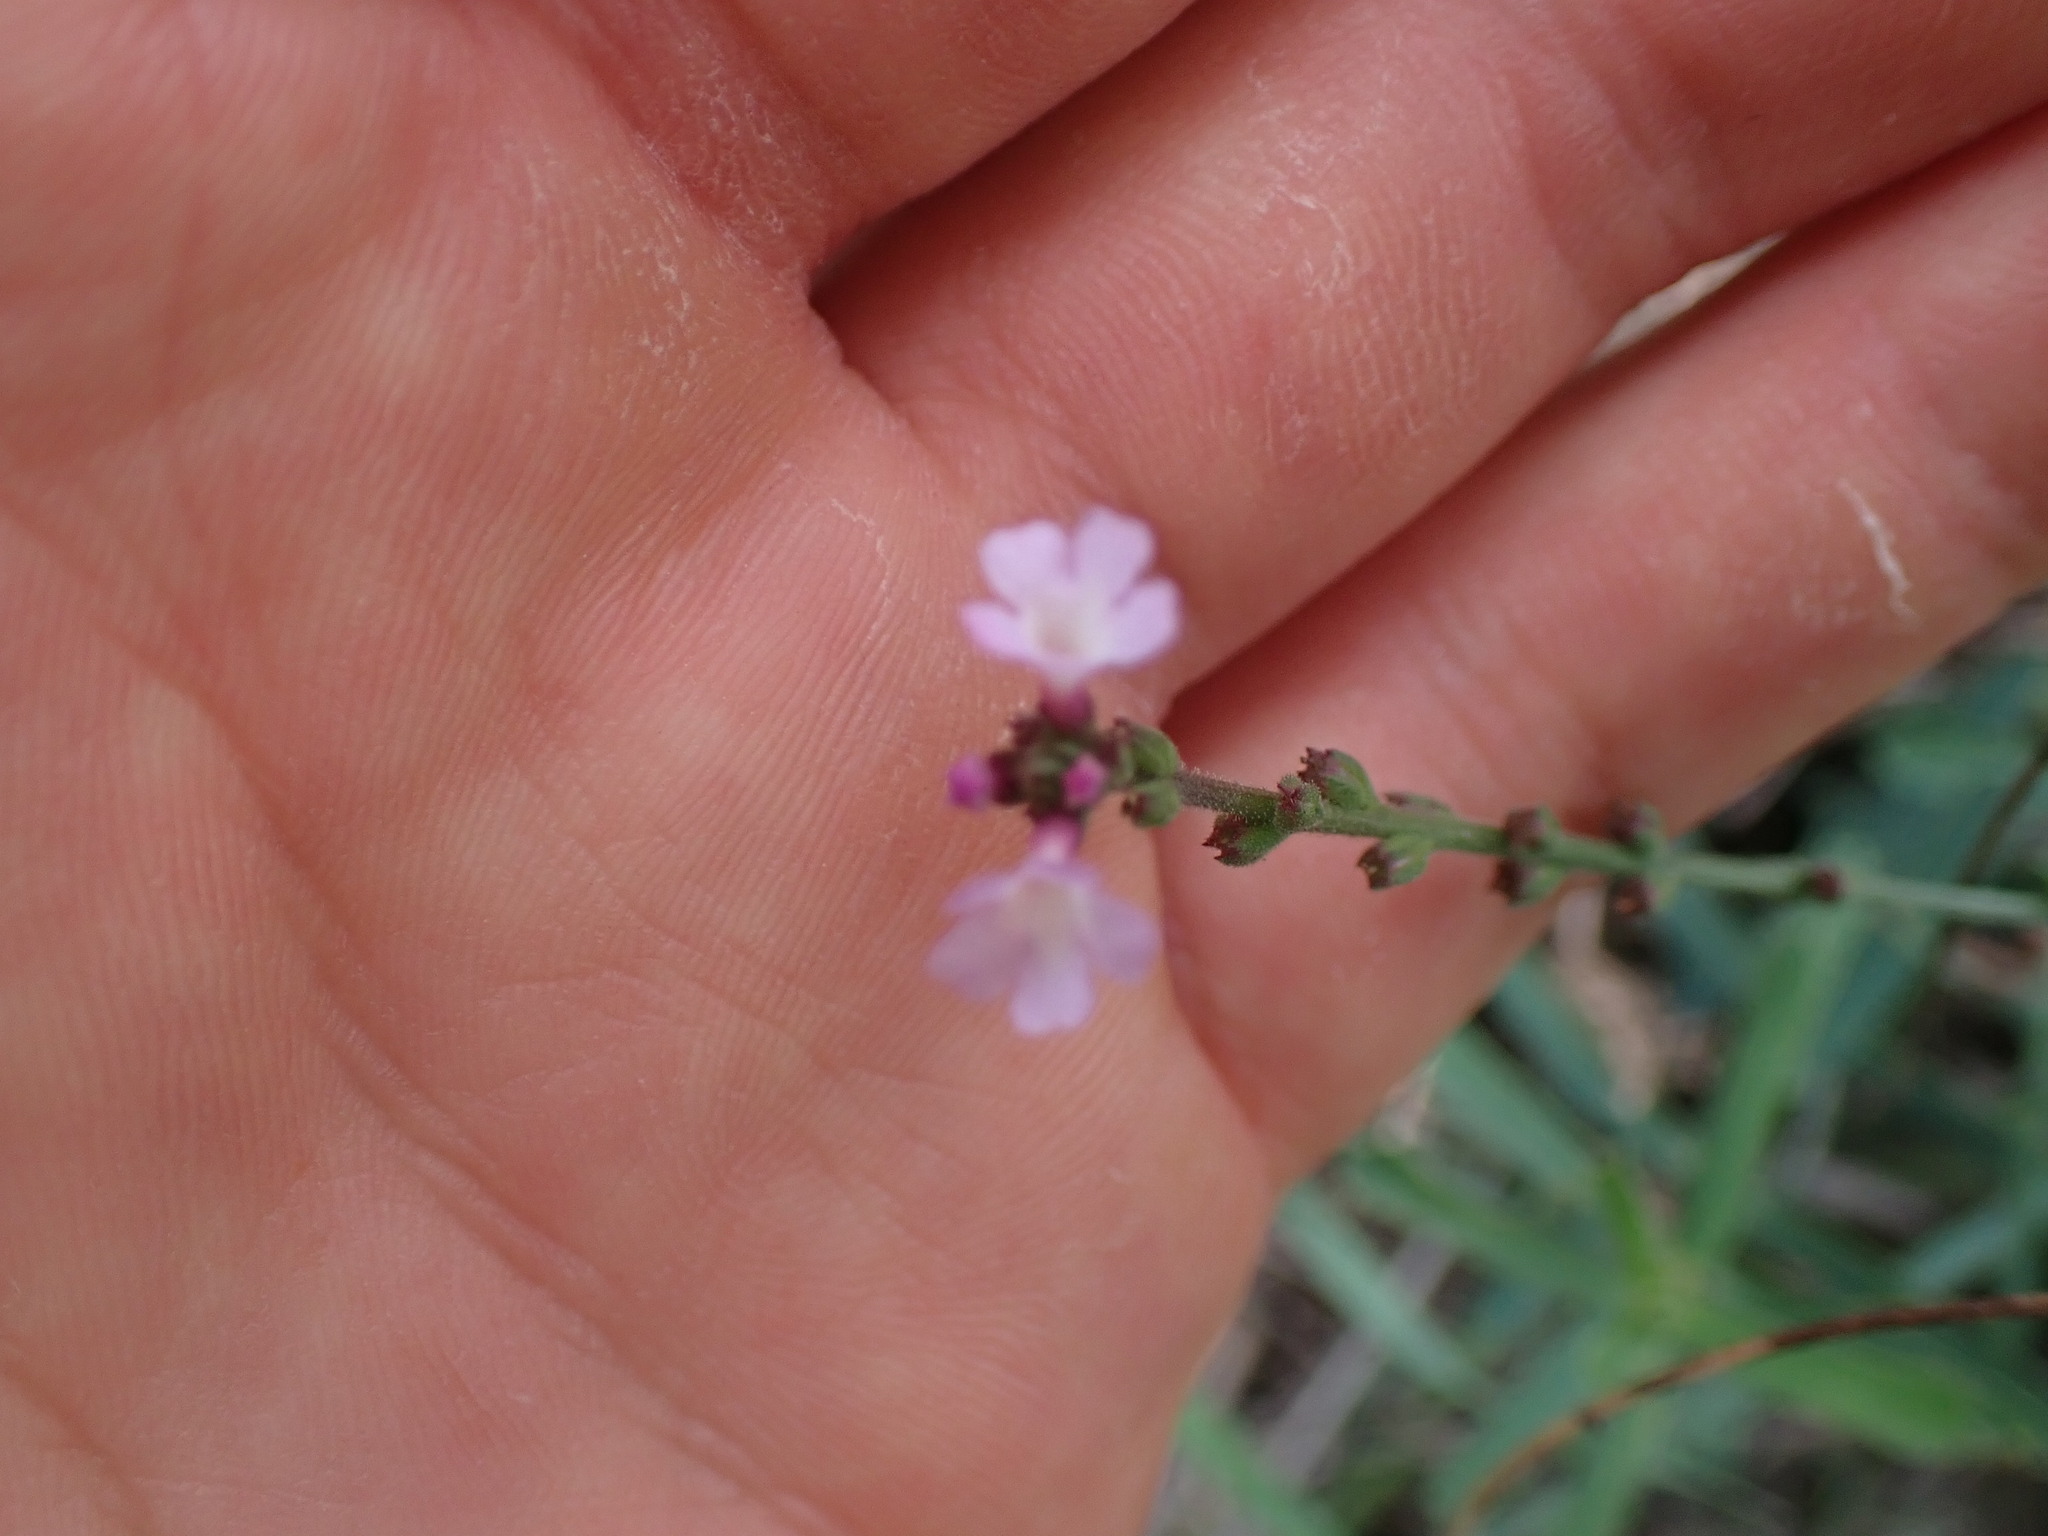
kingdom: Plantae
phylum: Tracheophyta
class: Magnoliopsida
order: Lamiales
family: Verbenaceae
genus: Verbena
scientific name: Verbena officinalis
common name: Vervain
